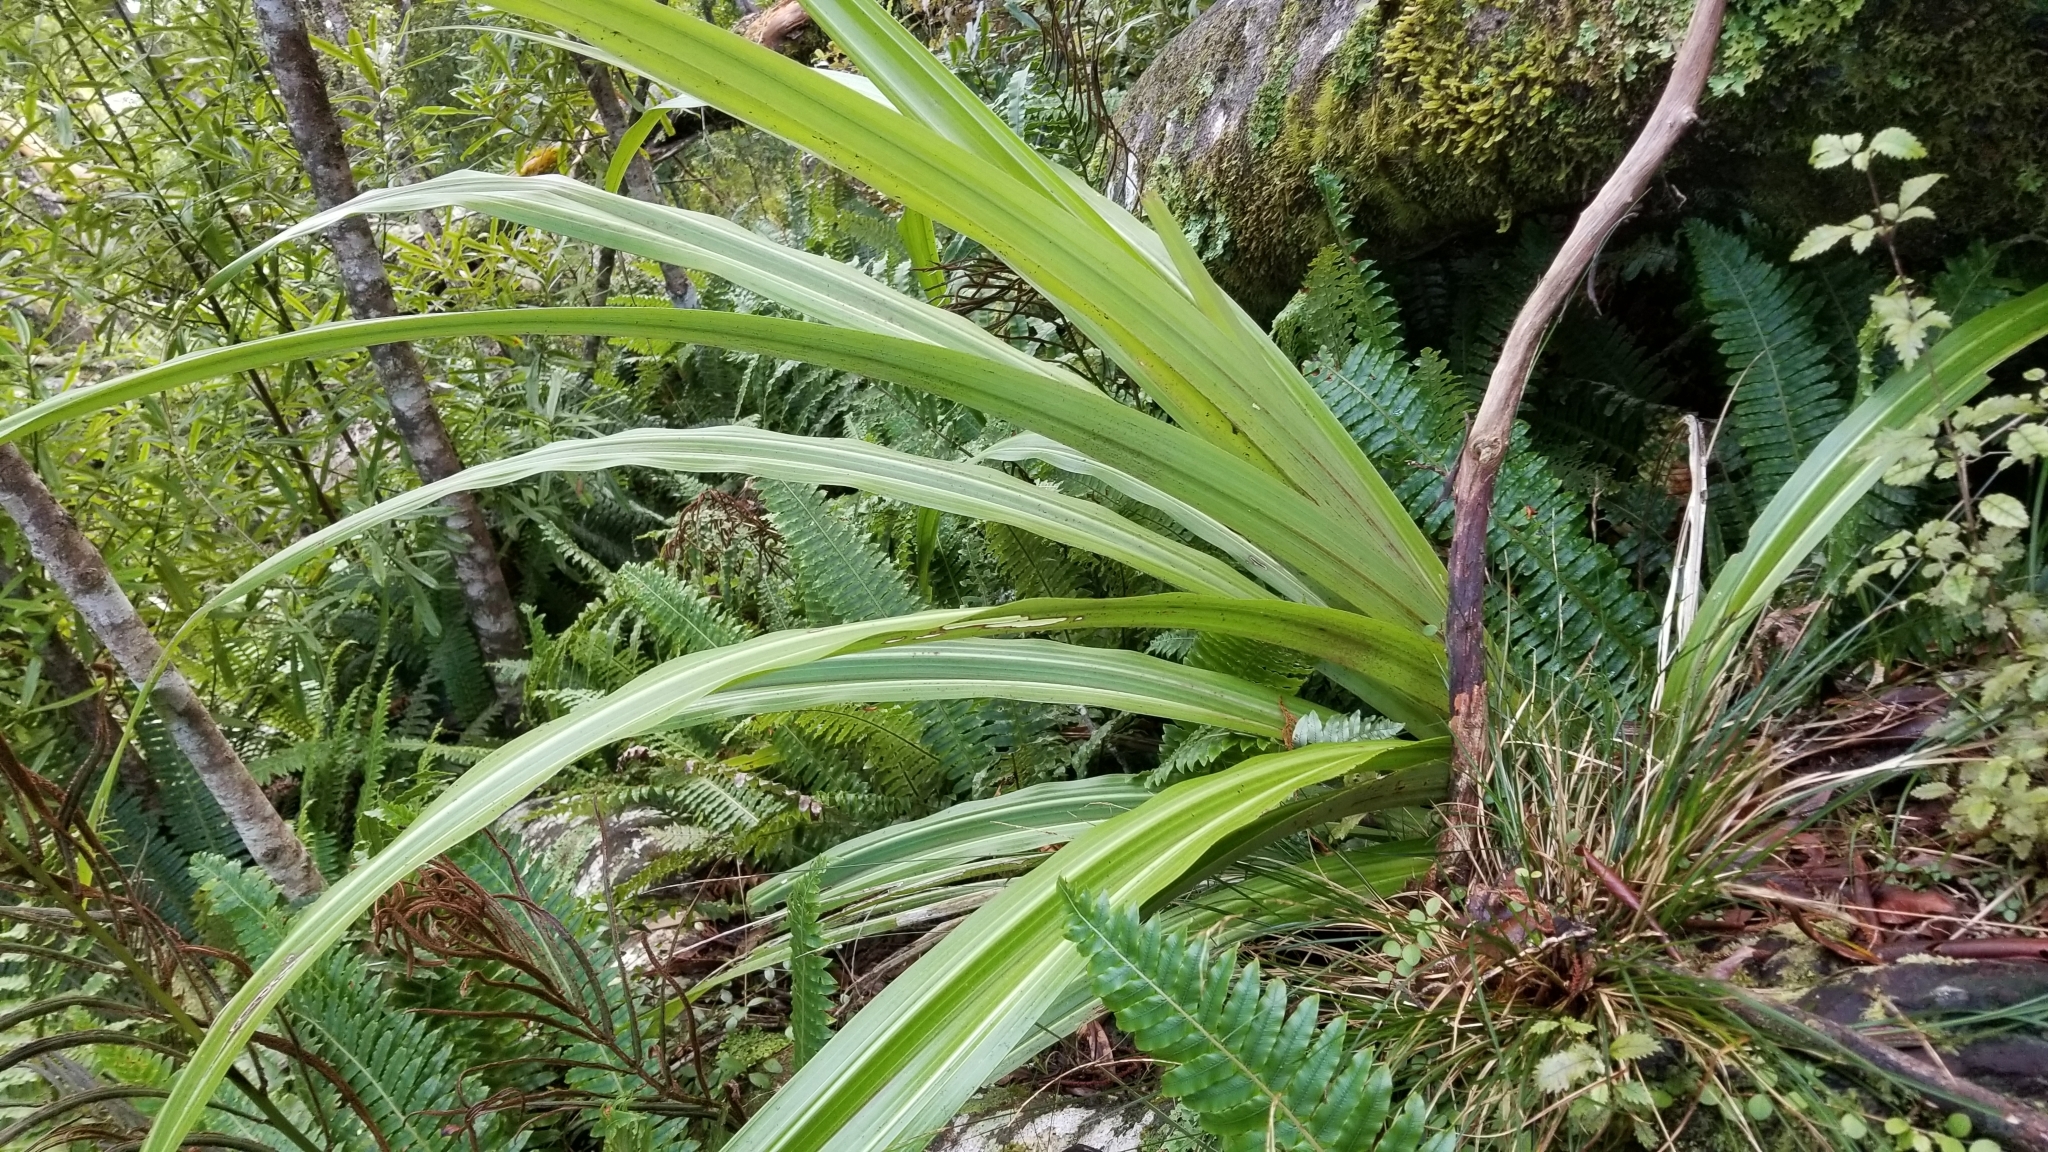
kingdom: Plantae
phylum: Tracheophyta
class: Liliopsida
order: Asparagales
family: Asteliaceae
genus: Astelia
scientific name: Astelia nervosa
